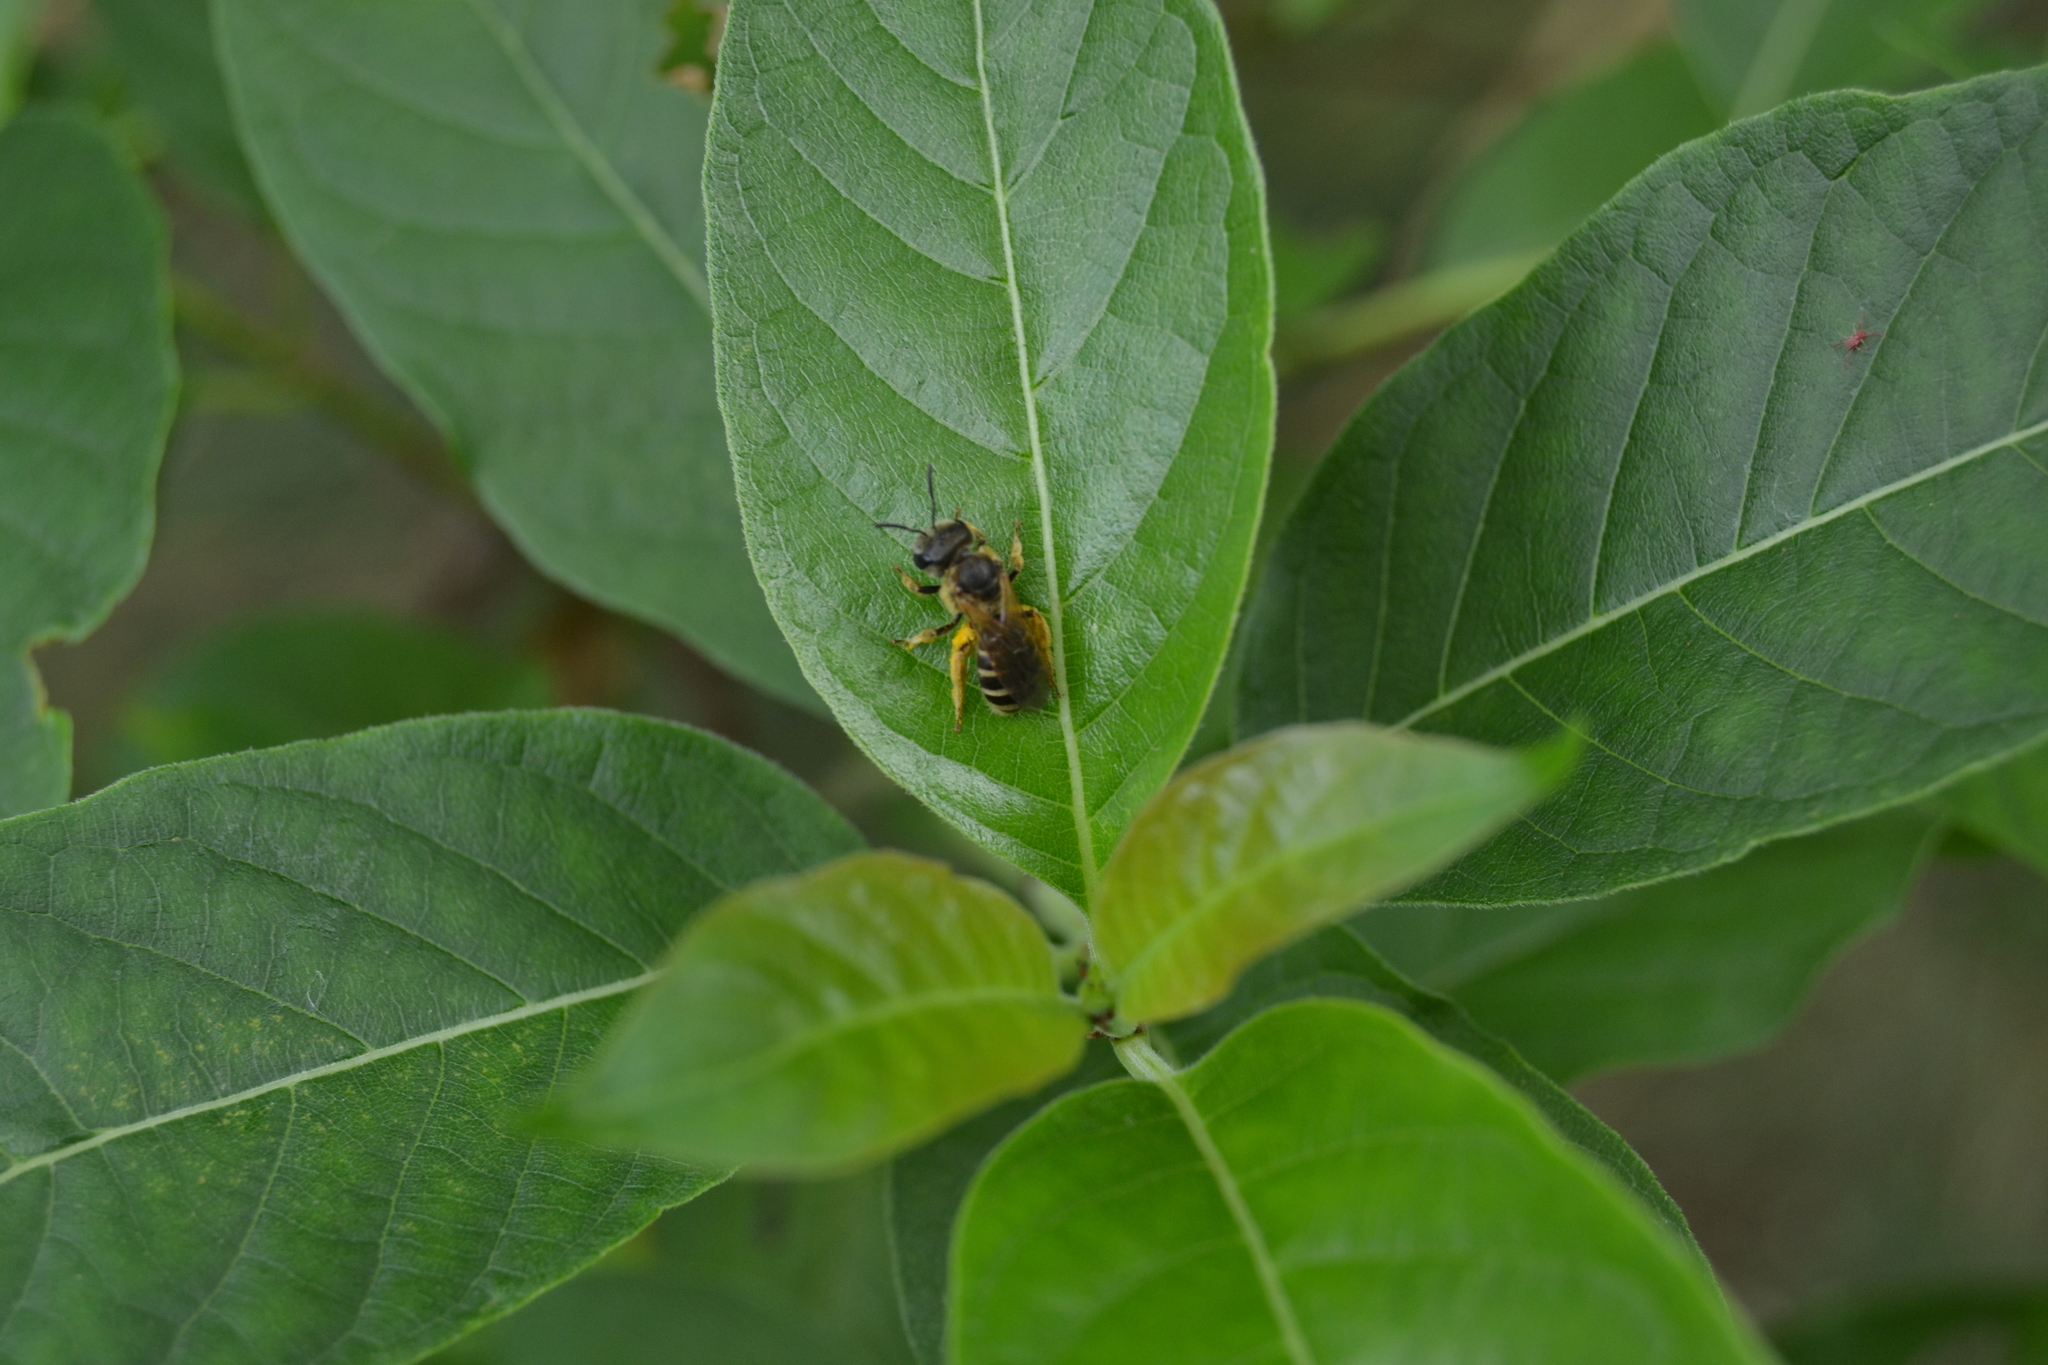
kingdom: Animalia
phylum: Arthropoda
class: Insecta
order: Hymenoptera
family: Halictidae
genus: Halictus
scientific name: Halictus ligatus
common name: Ligated furrow bee
